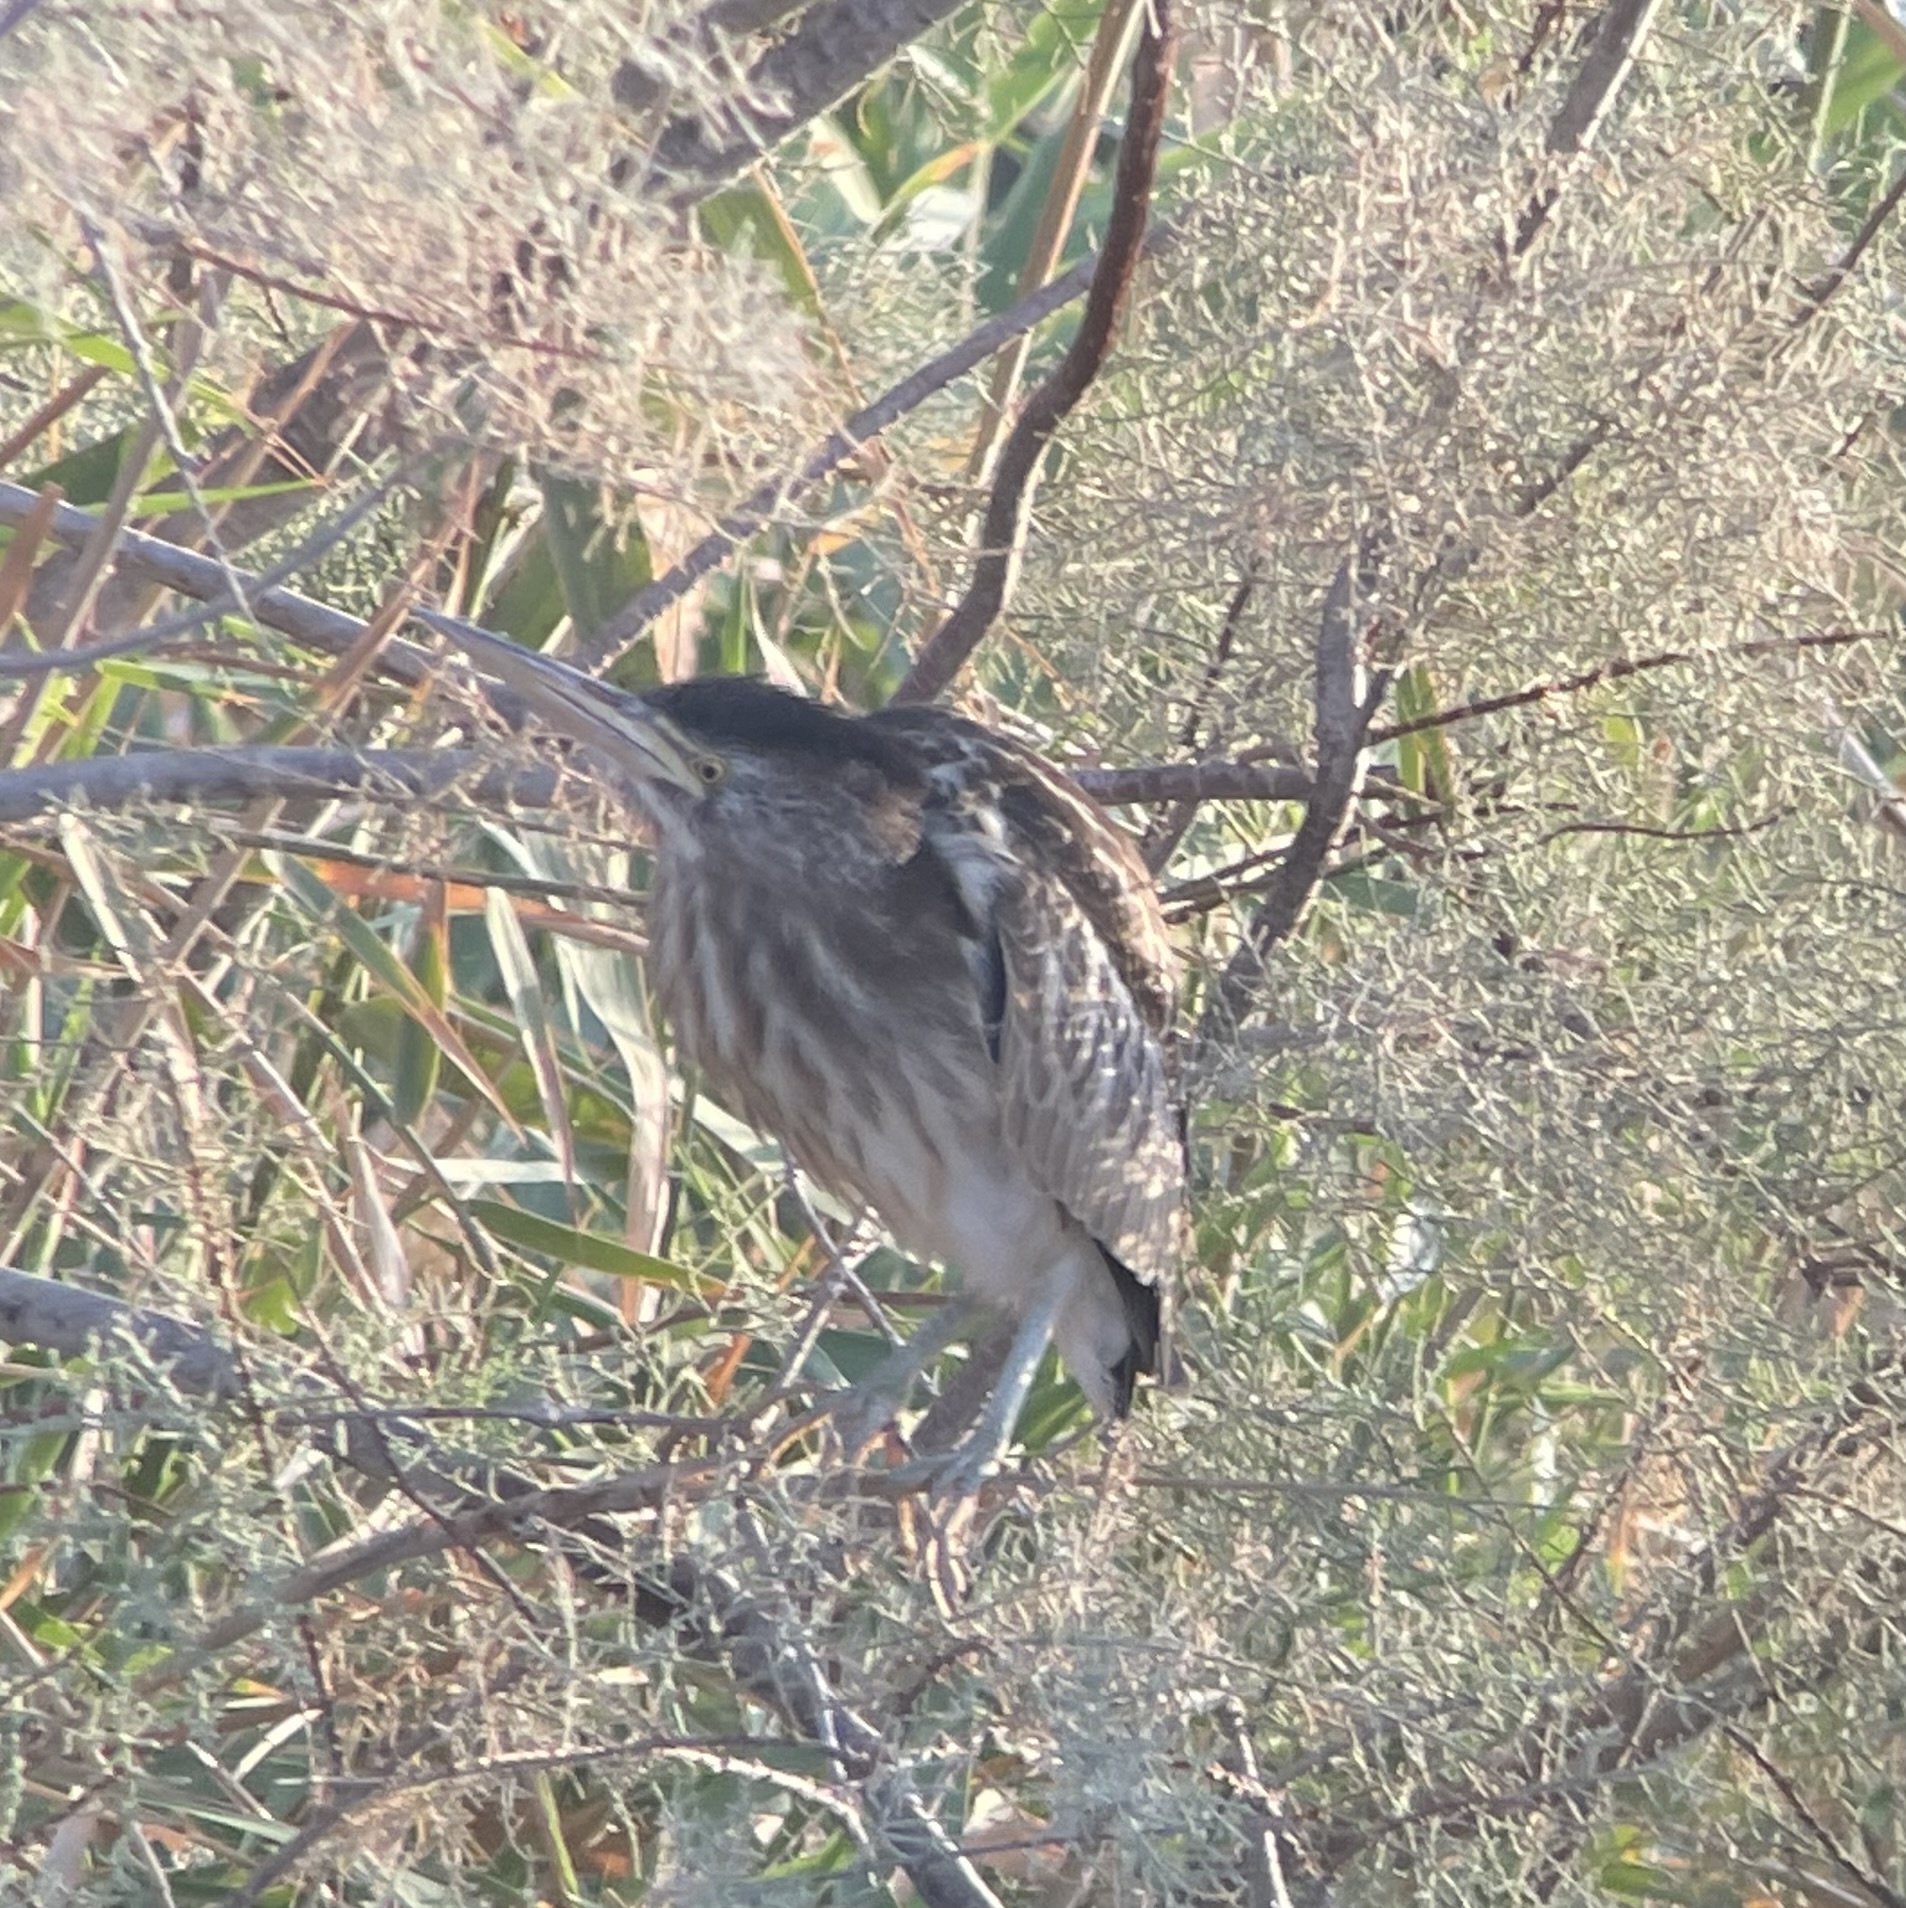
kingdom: Animalia
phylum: Chordata
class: Aves
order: Pelecaniformes
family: Ardeidae
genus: Ixobrychus
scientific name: Ixobrychus minutus
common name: Little bittern
